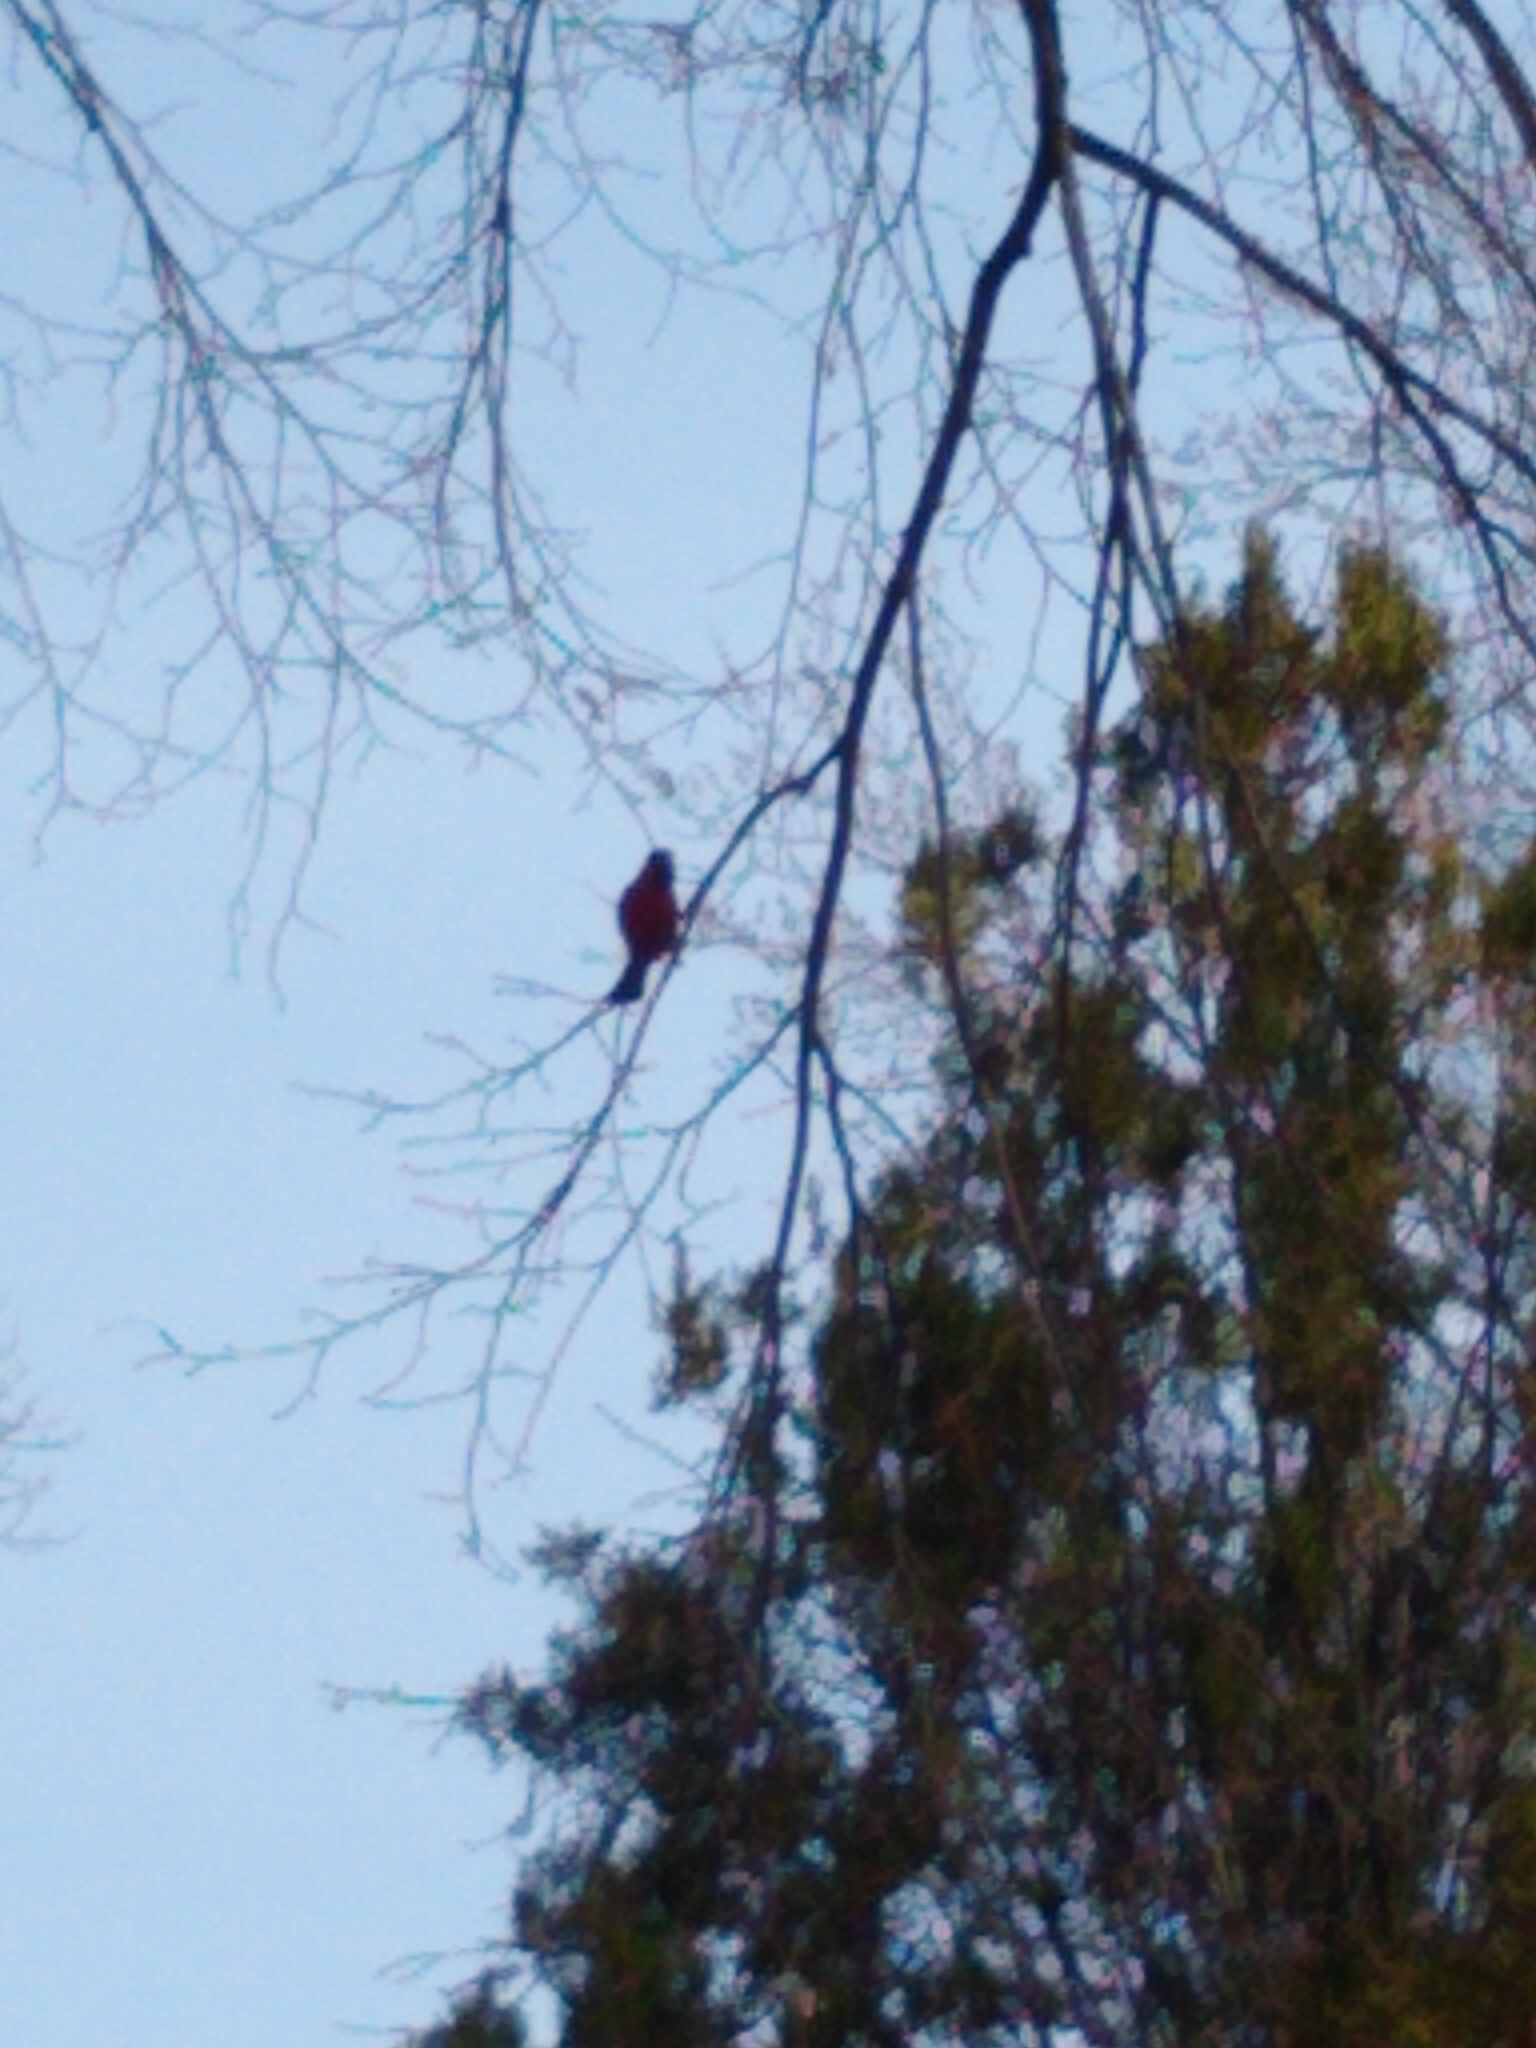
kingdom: Animalia
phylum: Chordata
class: Aves
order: Passeriformes
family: Cardinalidae
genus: Cardinalis
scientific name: Cardinalis cardinalis
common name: Northern cardinal
